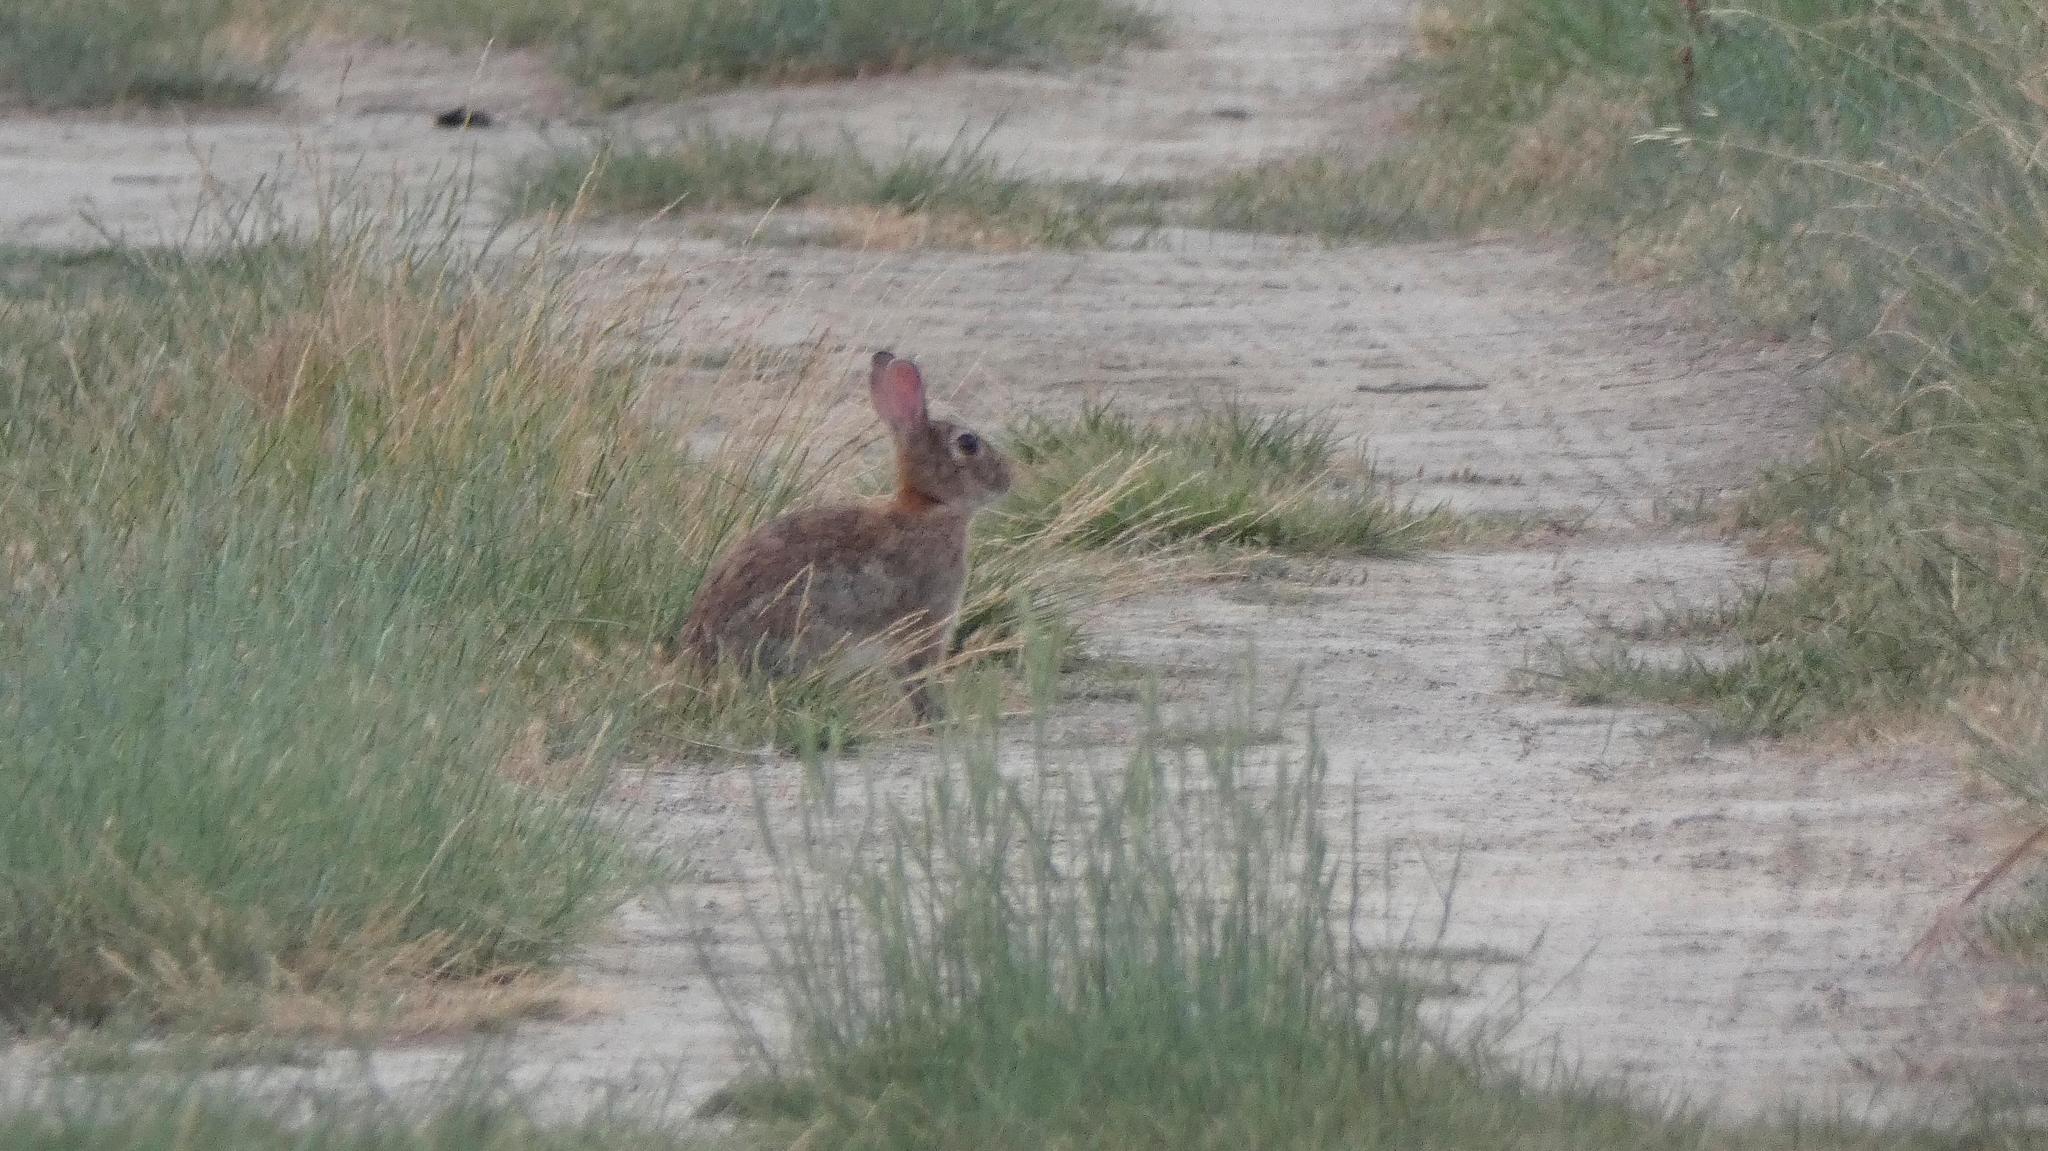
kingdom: Animalia
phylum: Chordata
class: Mammalia
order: Lagomorpha
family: Leporidae
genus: Oryctolagus
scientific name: Oryctolagus cuniculus
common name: European rabbit
